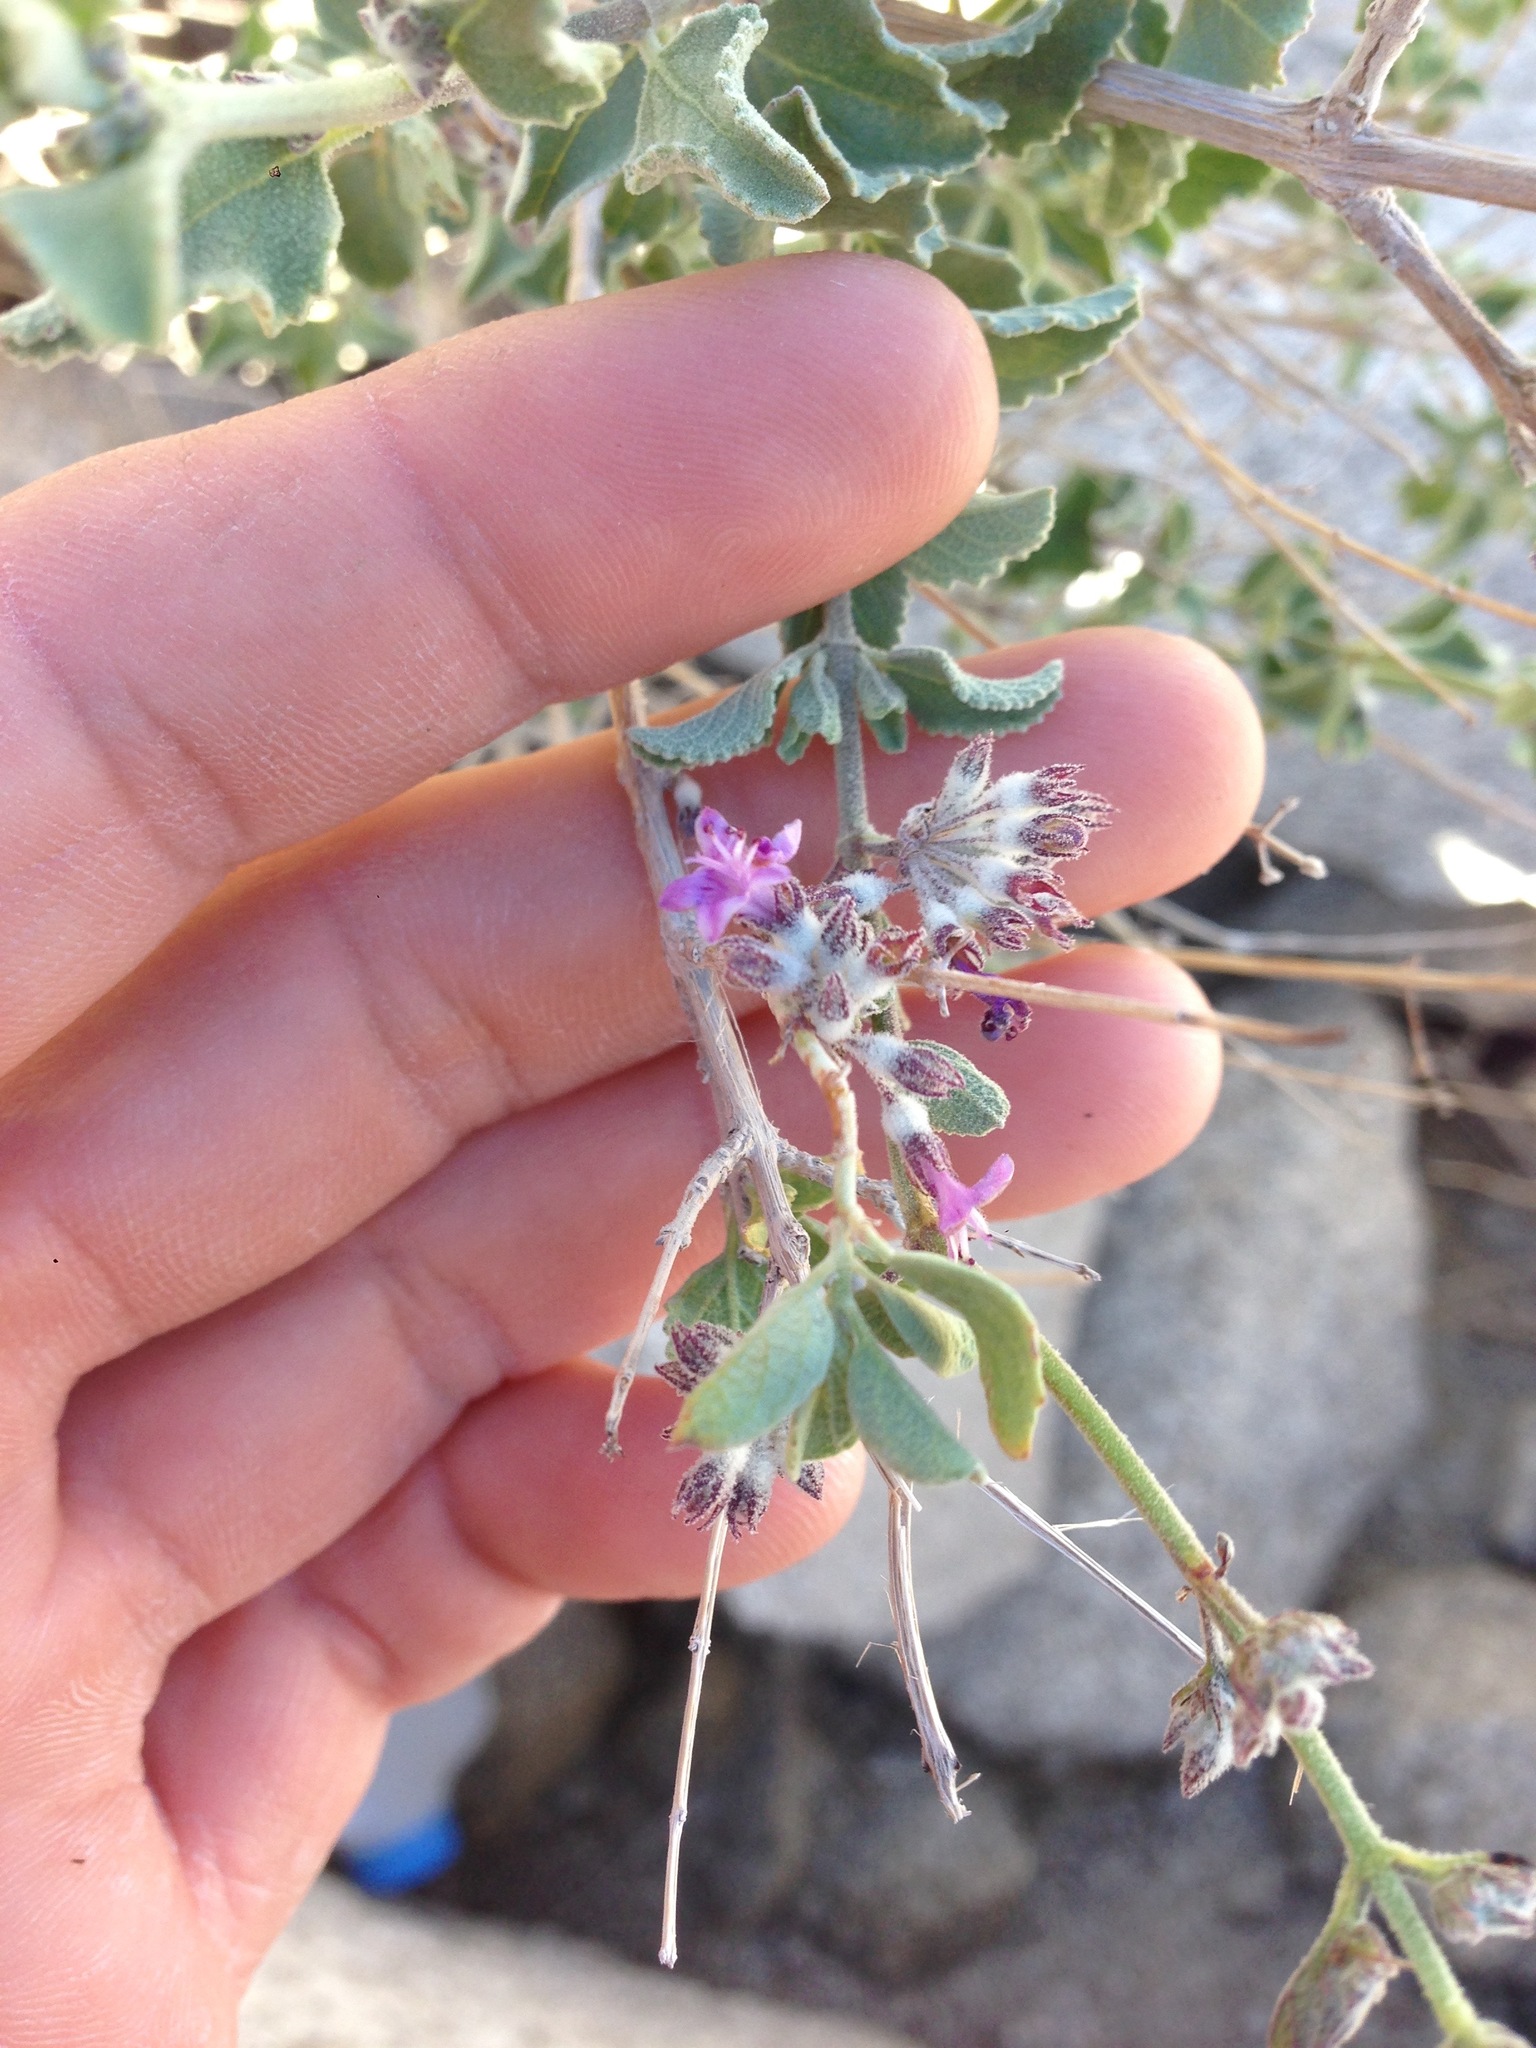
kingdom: Plantae
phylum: Tracheophyta
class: Magnoliopsida
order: Lamiales
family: Lamiaceae
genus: Condea
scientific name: Condea emoryi
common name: Chia
